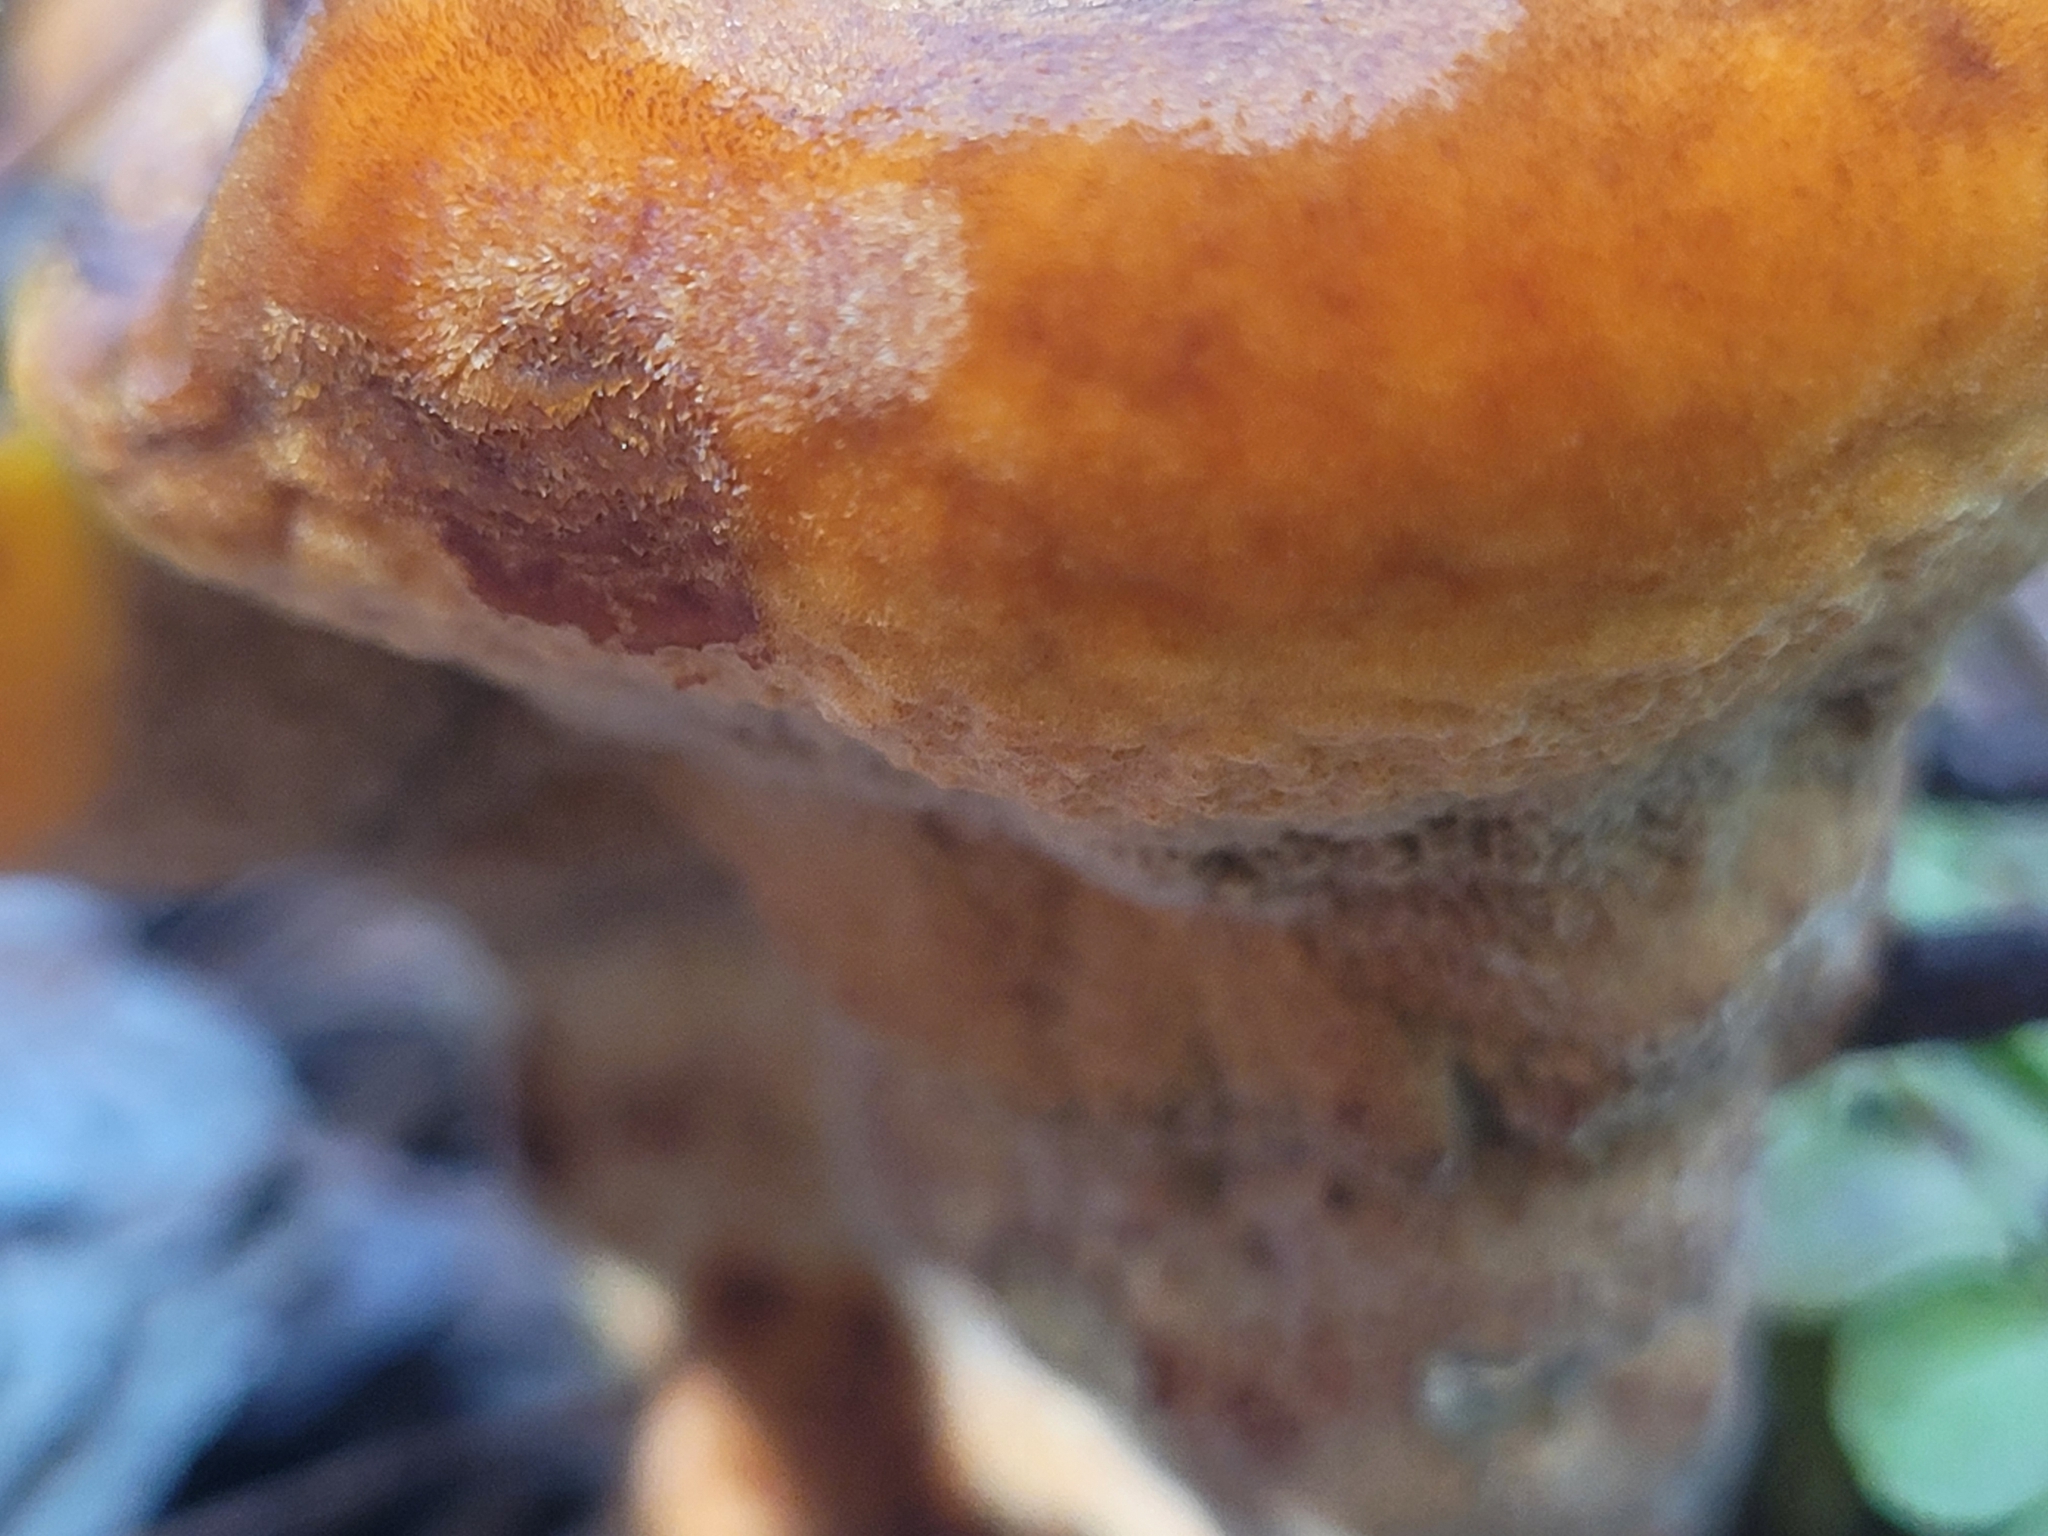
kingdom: Fungi
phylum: Basidiomycota
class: Agaricomycetes
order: Polyporales
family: Laetiporaceae
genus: Phaeolus
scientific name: Phaeolus schweinitzii
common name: Dyer's mazegill
